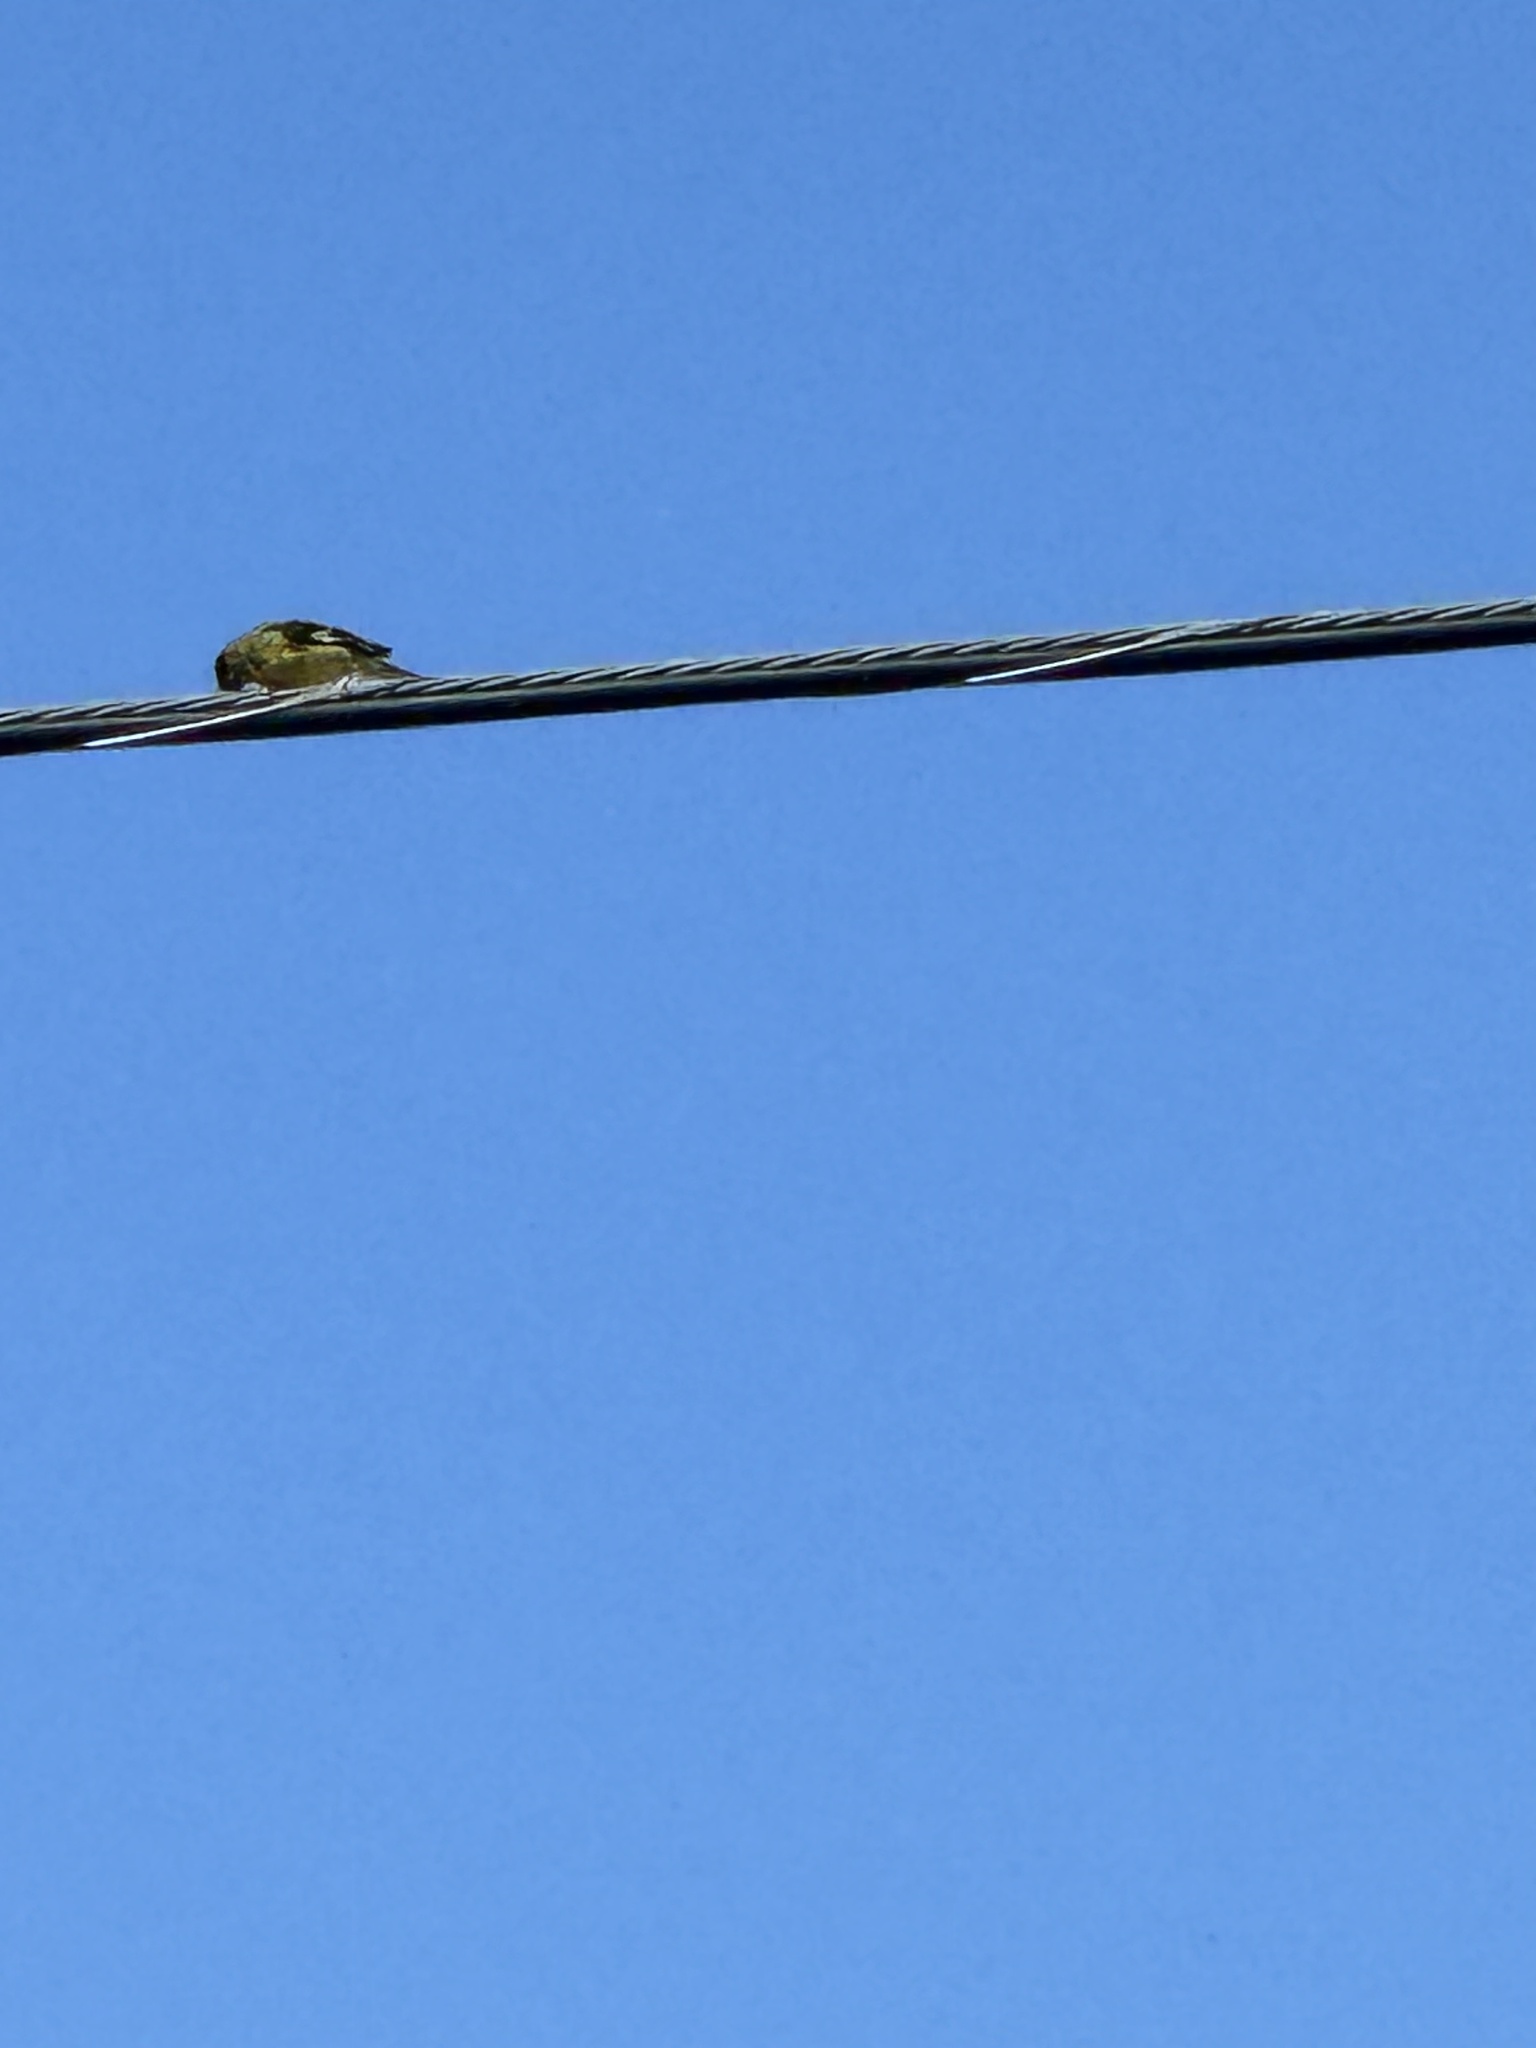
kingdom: Animalia
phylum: Chordata
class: Aves
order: Passeriformes
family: Fringillidae
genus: Spinus
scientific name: Spinus psaltria
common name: Lesser goldfinch
